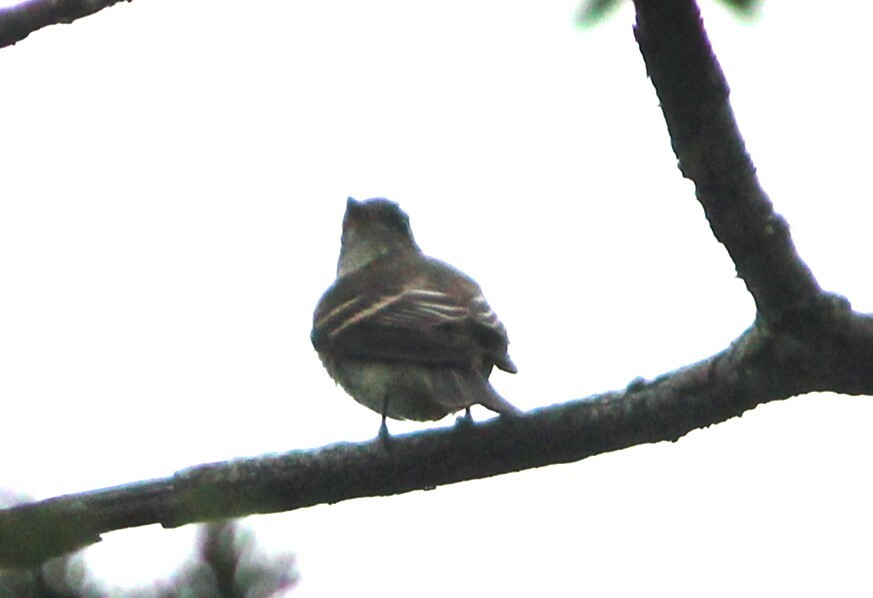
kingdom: Animalia
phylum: Chordata
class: Aves
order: Passeriformes
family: Tyrannidae
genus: Contopus
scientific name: Contopus virens
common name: Eastern wood-pewee
